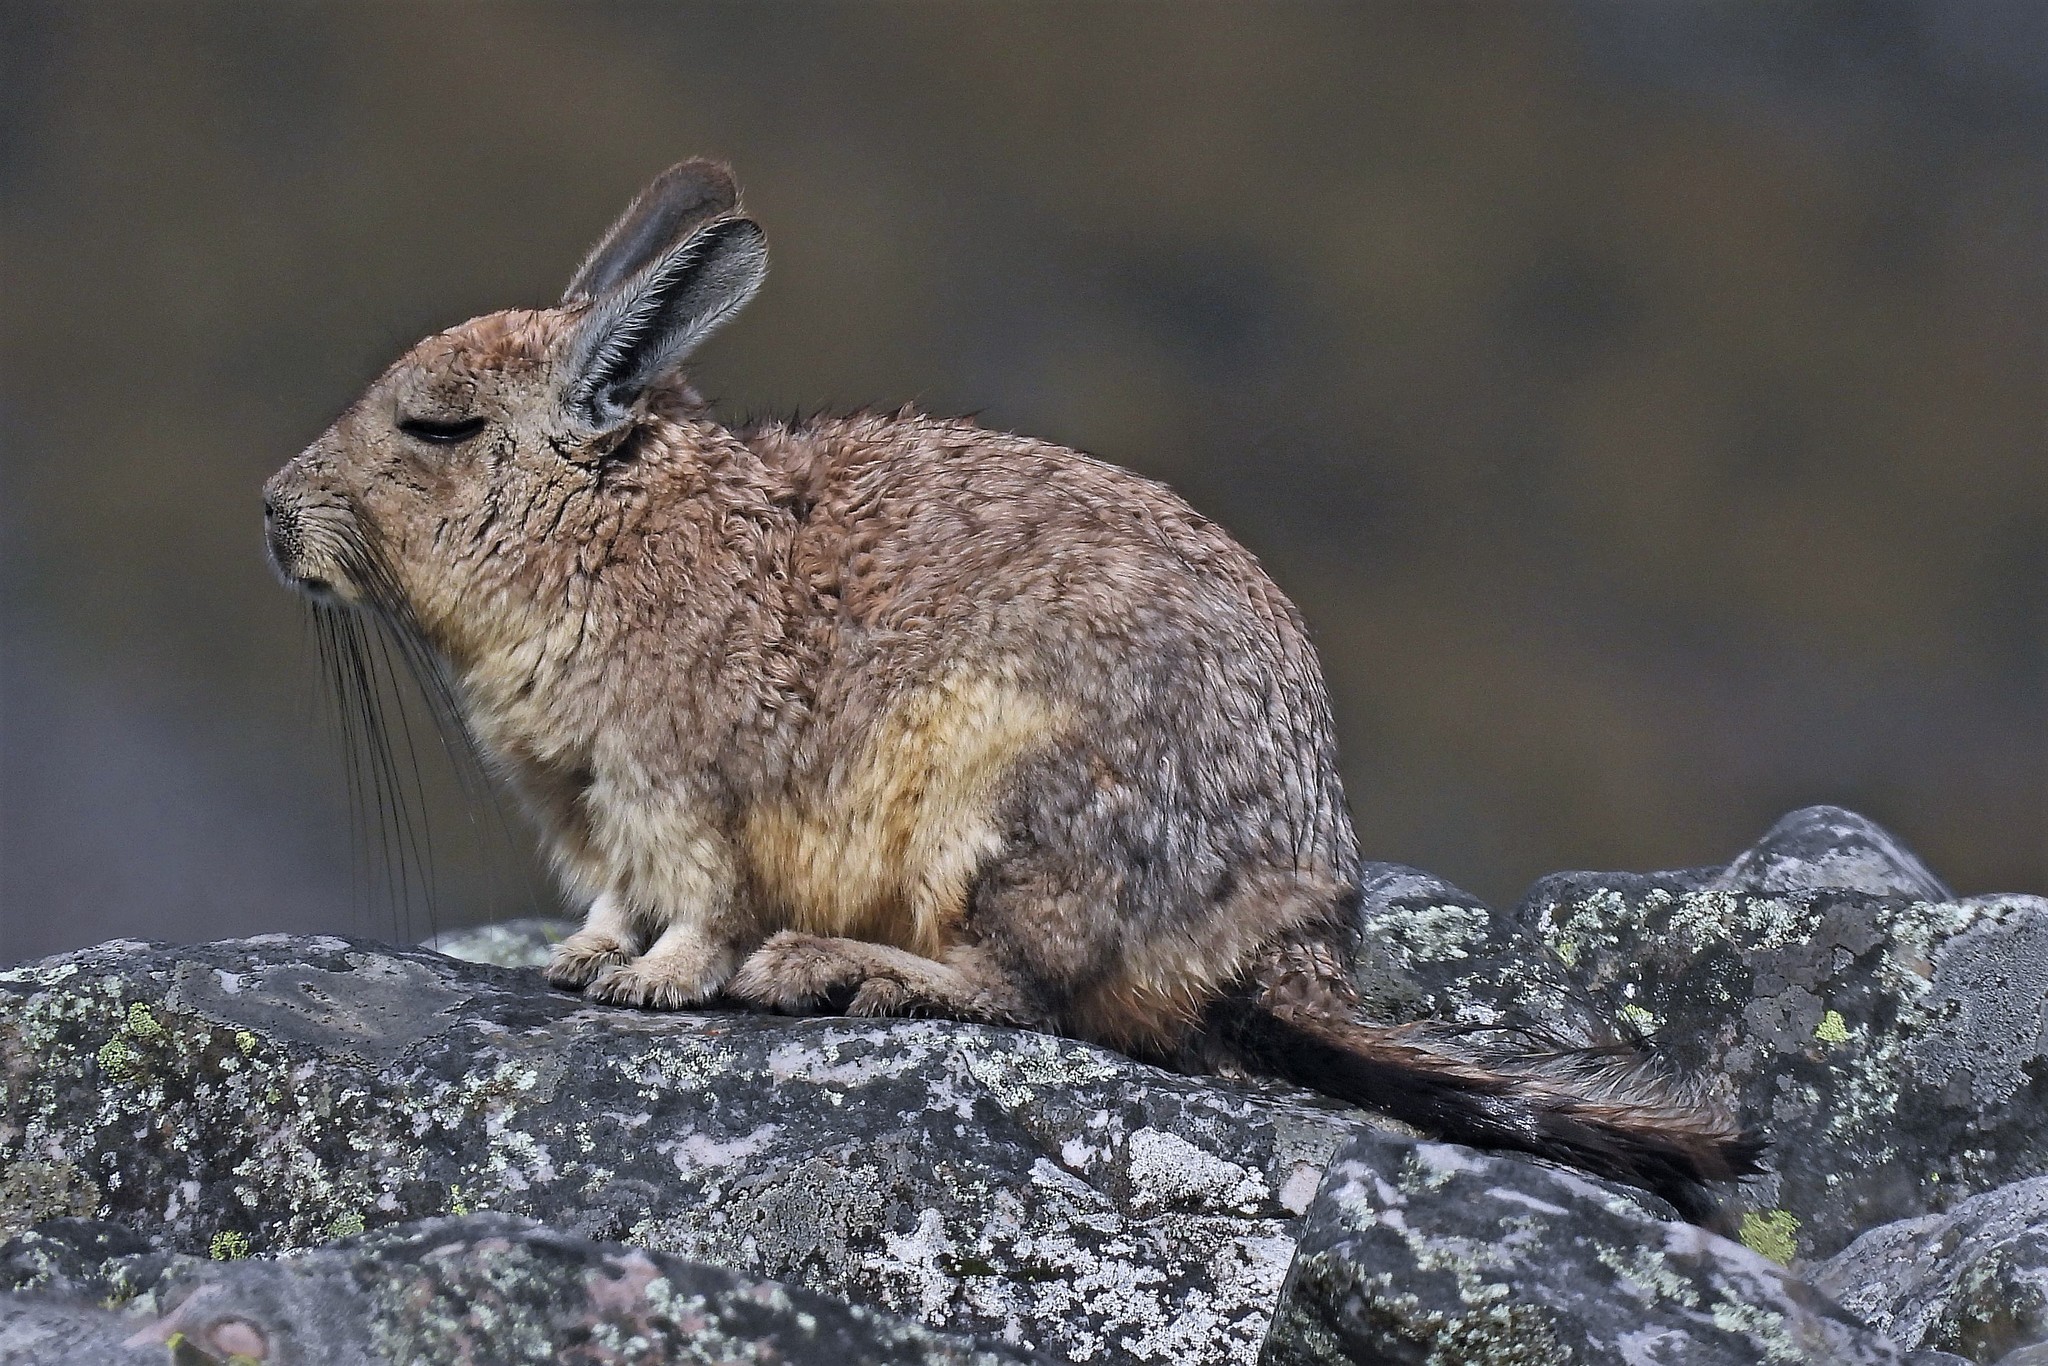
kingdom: Animalia
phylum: Chordata
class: Mammalia
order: Rodentia
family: Chinchillidae
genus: Lagidium
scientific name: Lagidium viscacia
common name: Southern viscacha
